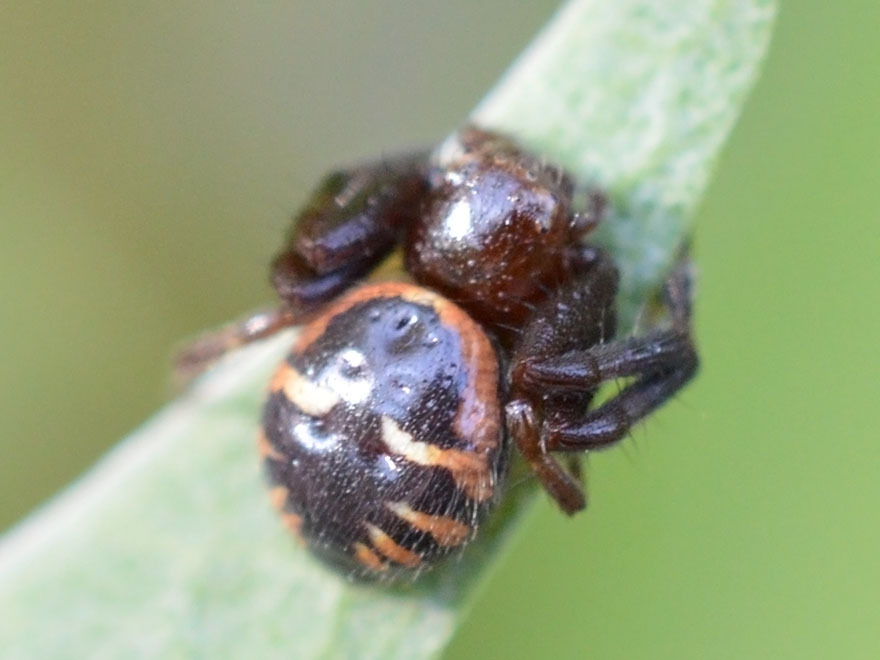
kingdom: Animalia
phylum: Arthropoda
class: Arachnida
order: Araneae
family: Thomisidae
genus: Synema
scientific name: Synema globosum
